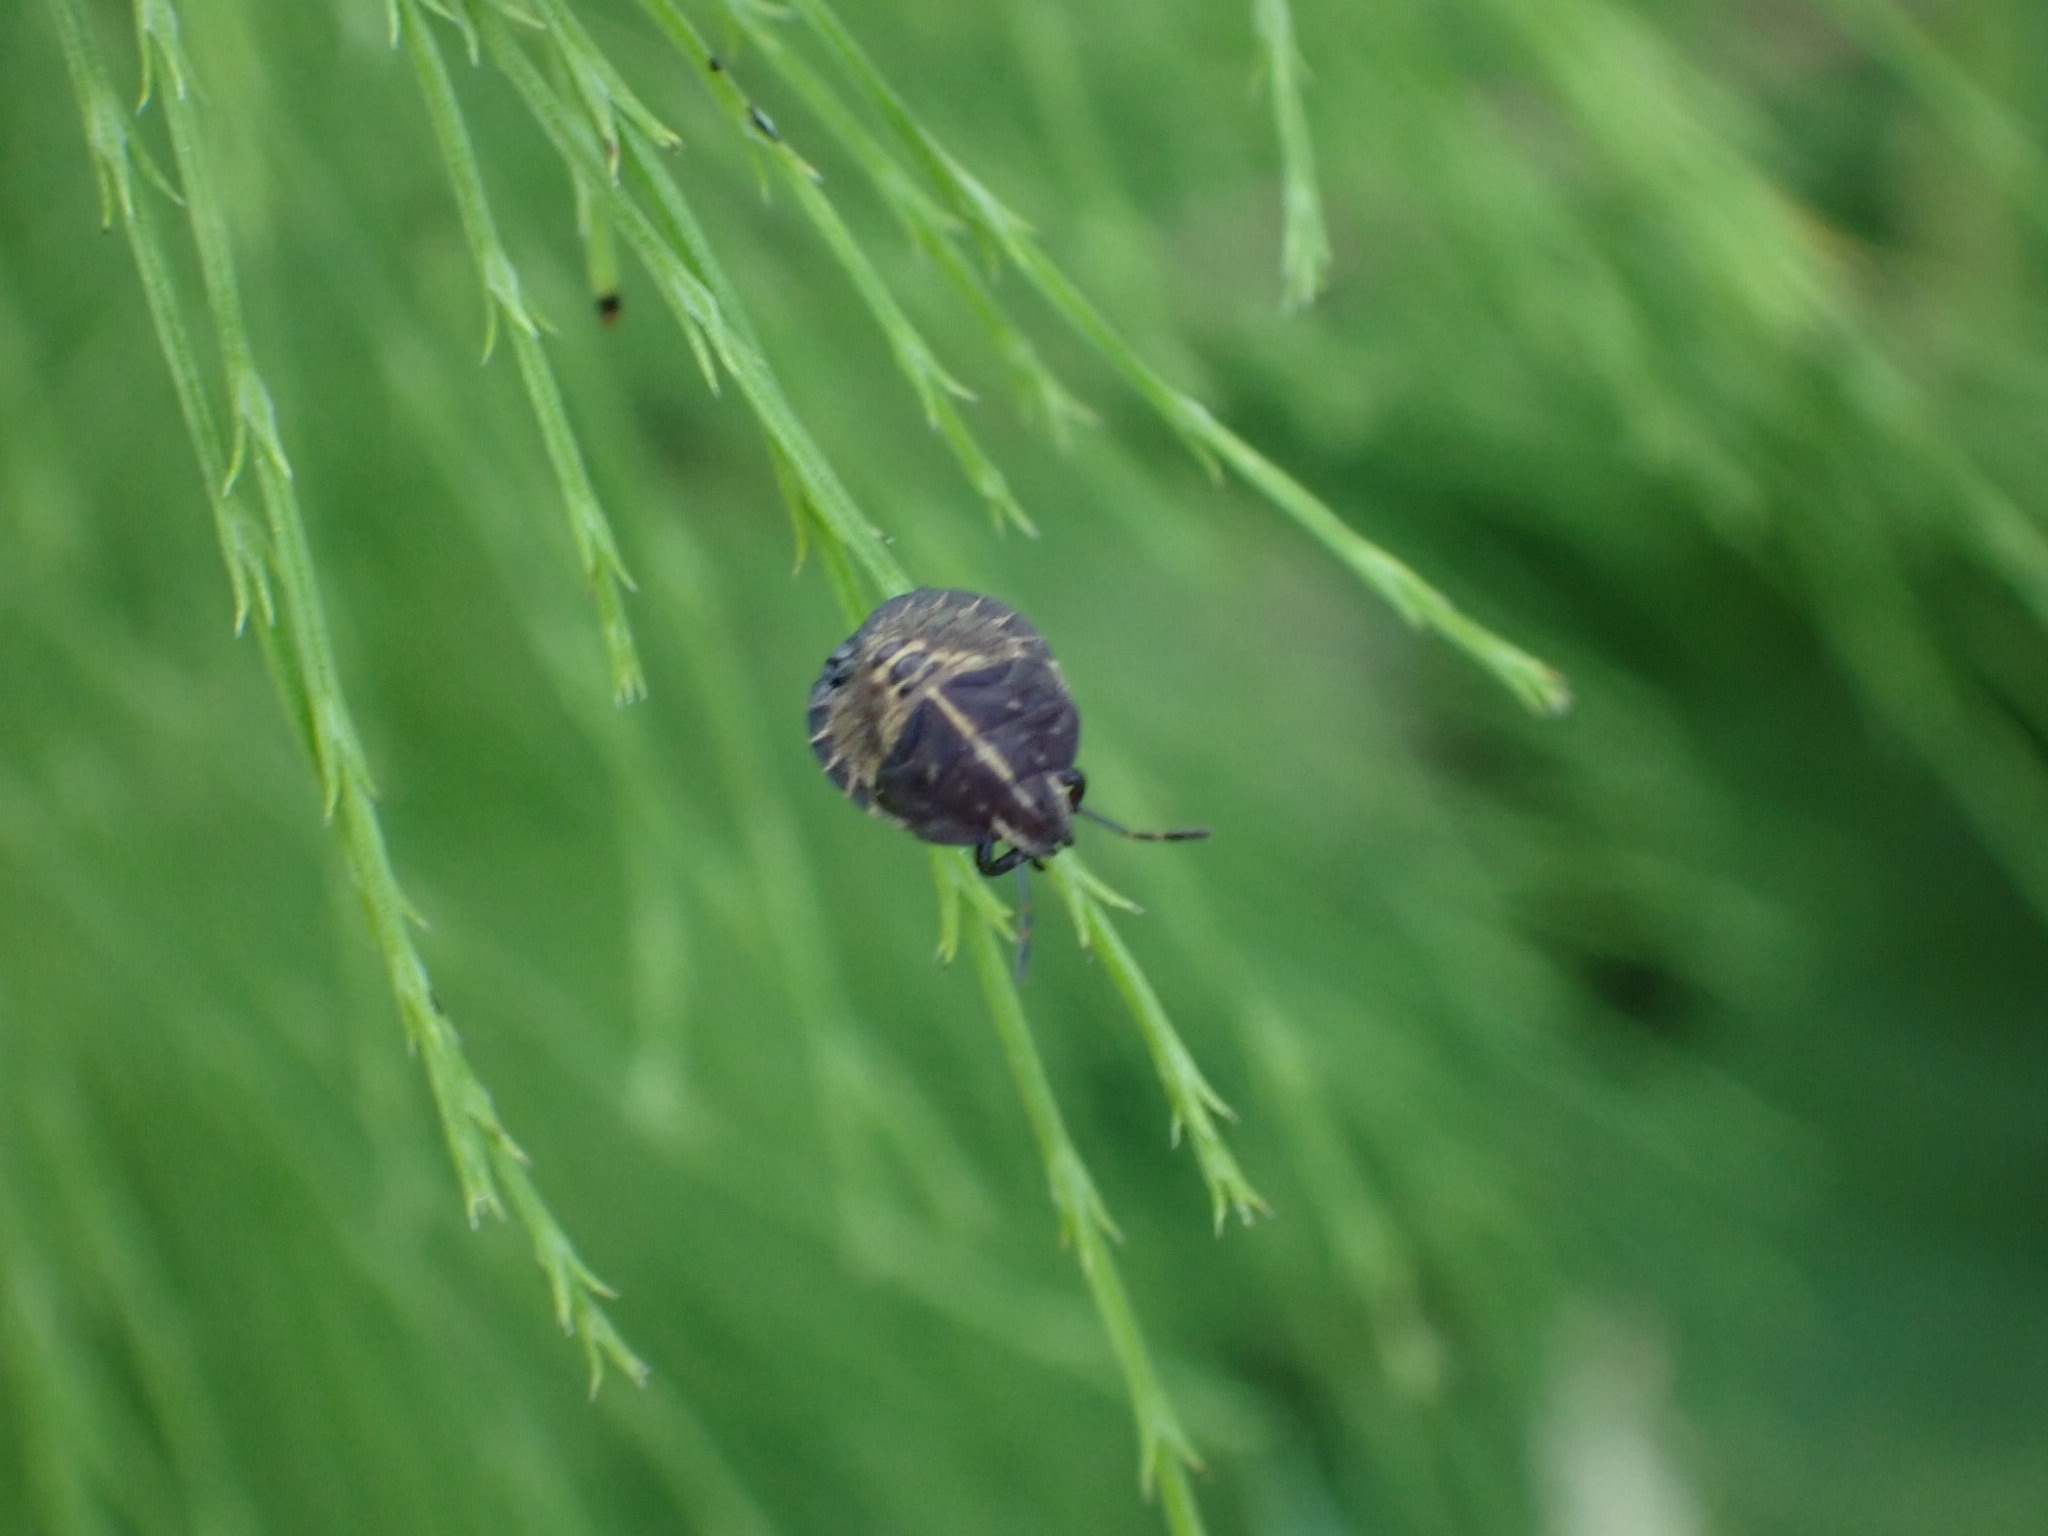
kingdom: Animalia
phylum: Arthropoda
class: Insecta
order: Hemiptera
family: Pentatomidae
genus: Graphosoma
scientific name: Graphosoma italicum
